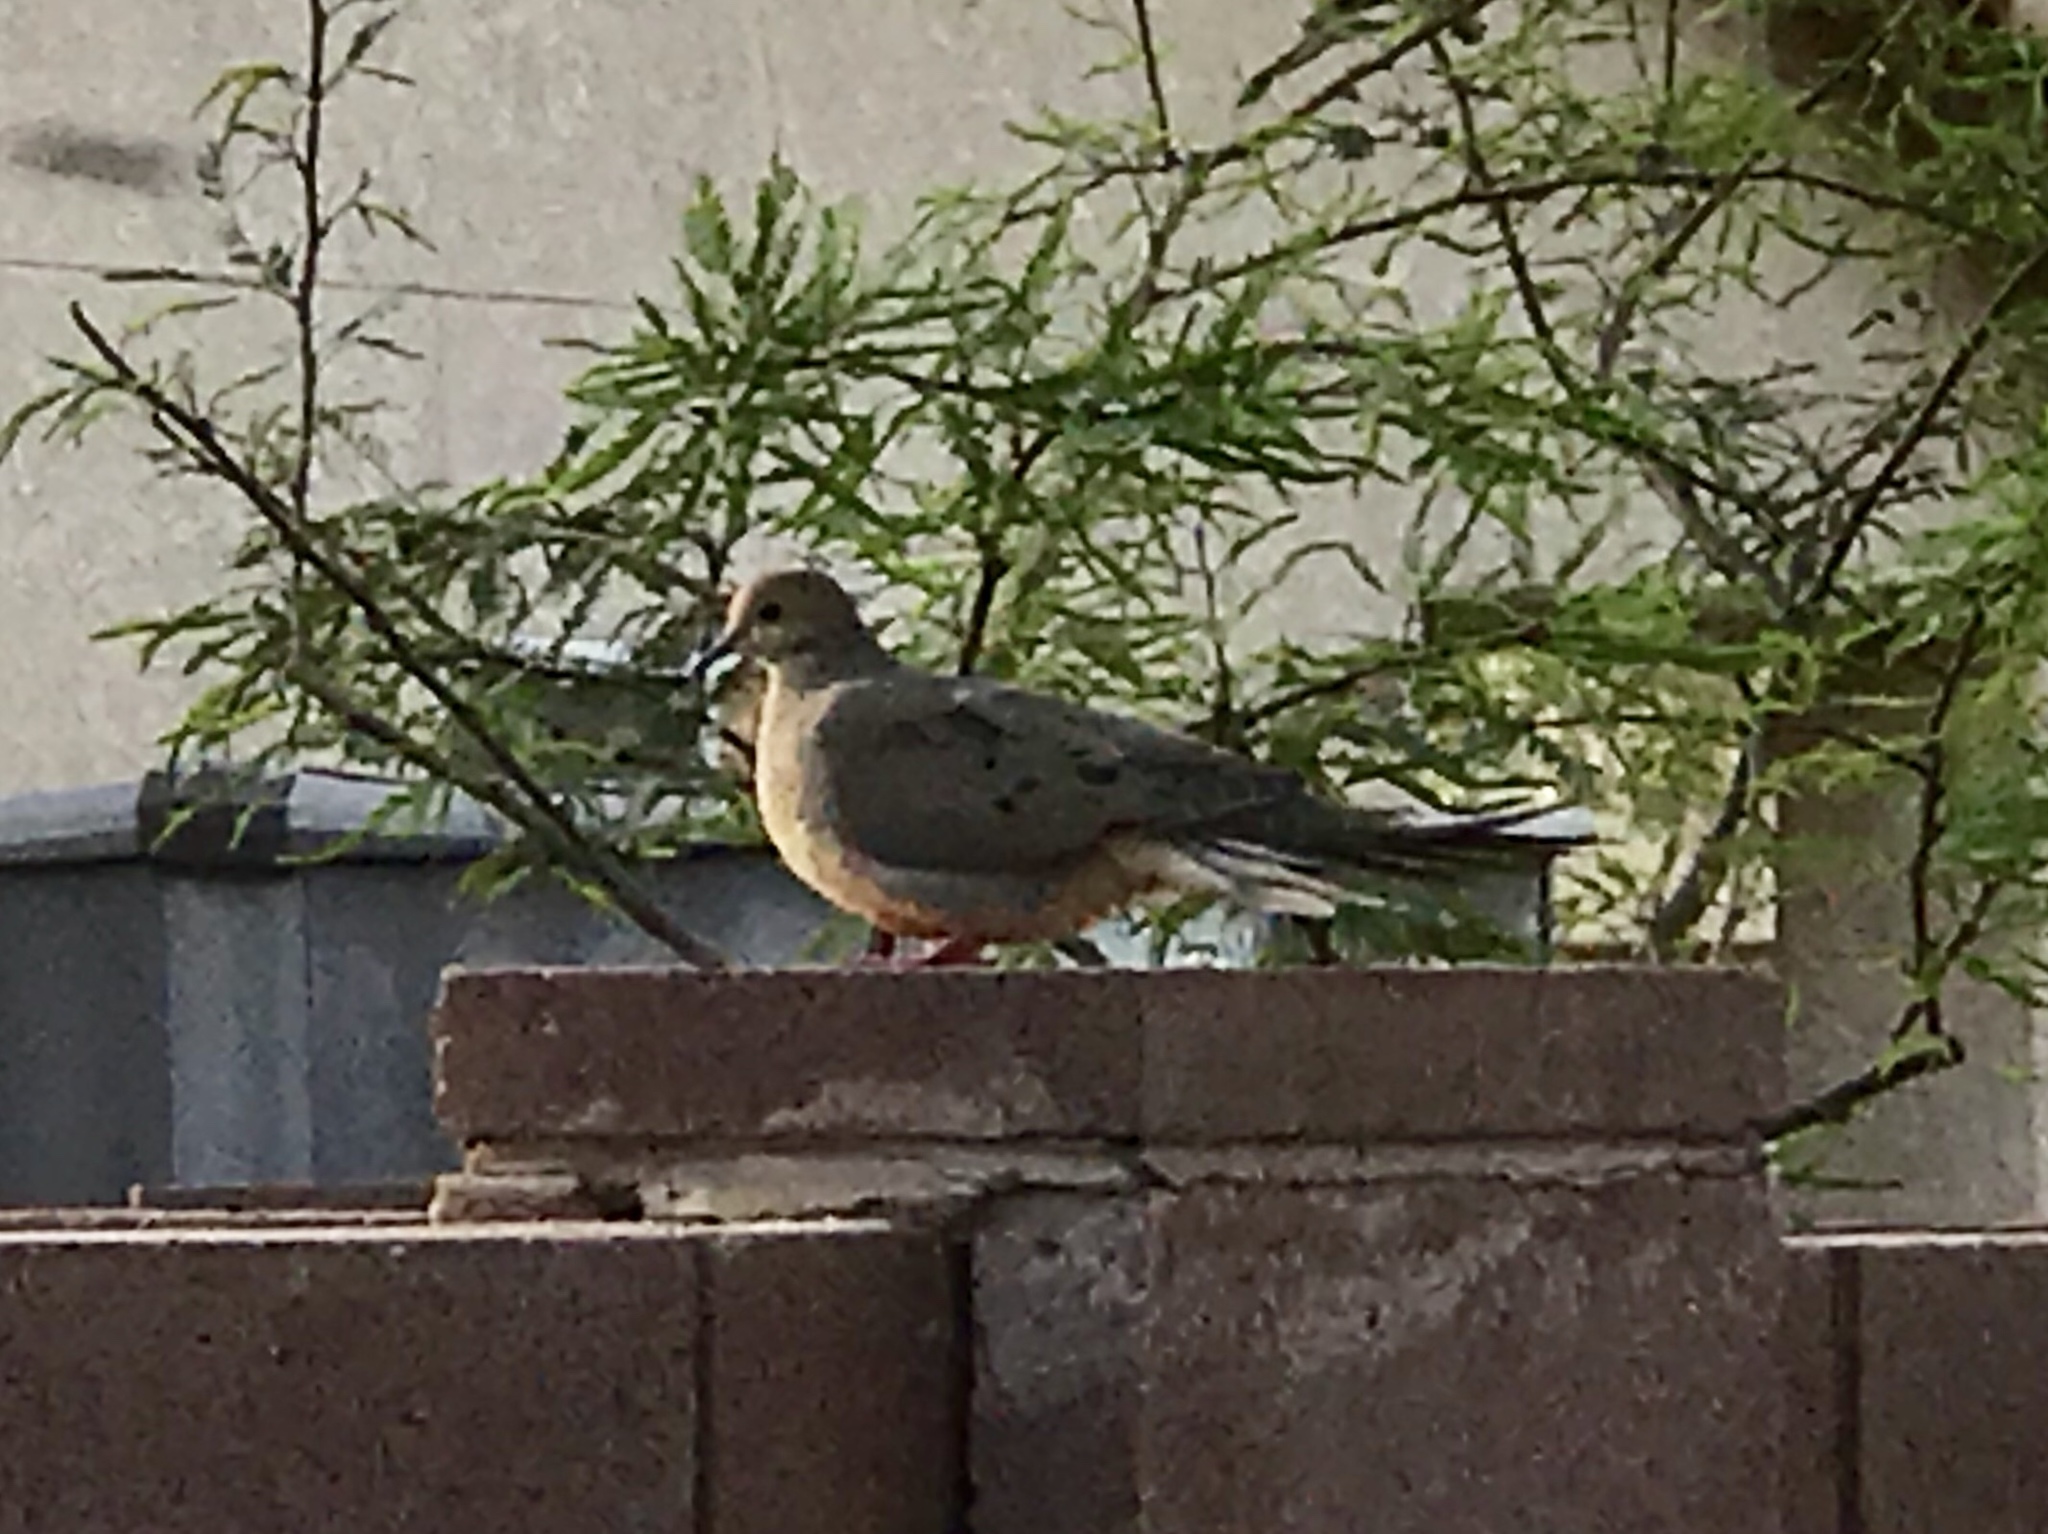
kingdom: Animalia
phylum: Chordata
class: Aves
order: Columbiformes
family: Columbidae
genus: Zenaida
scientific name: Zenaida macroura
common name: Mourning dove
